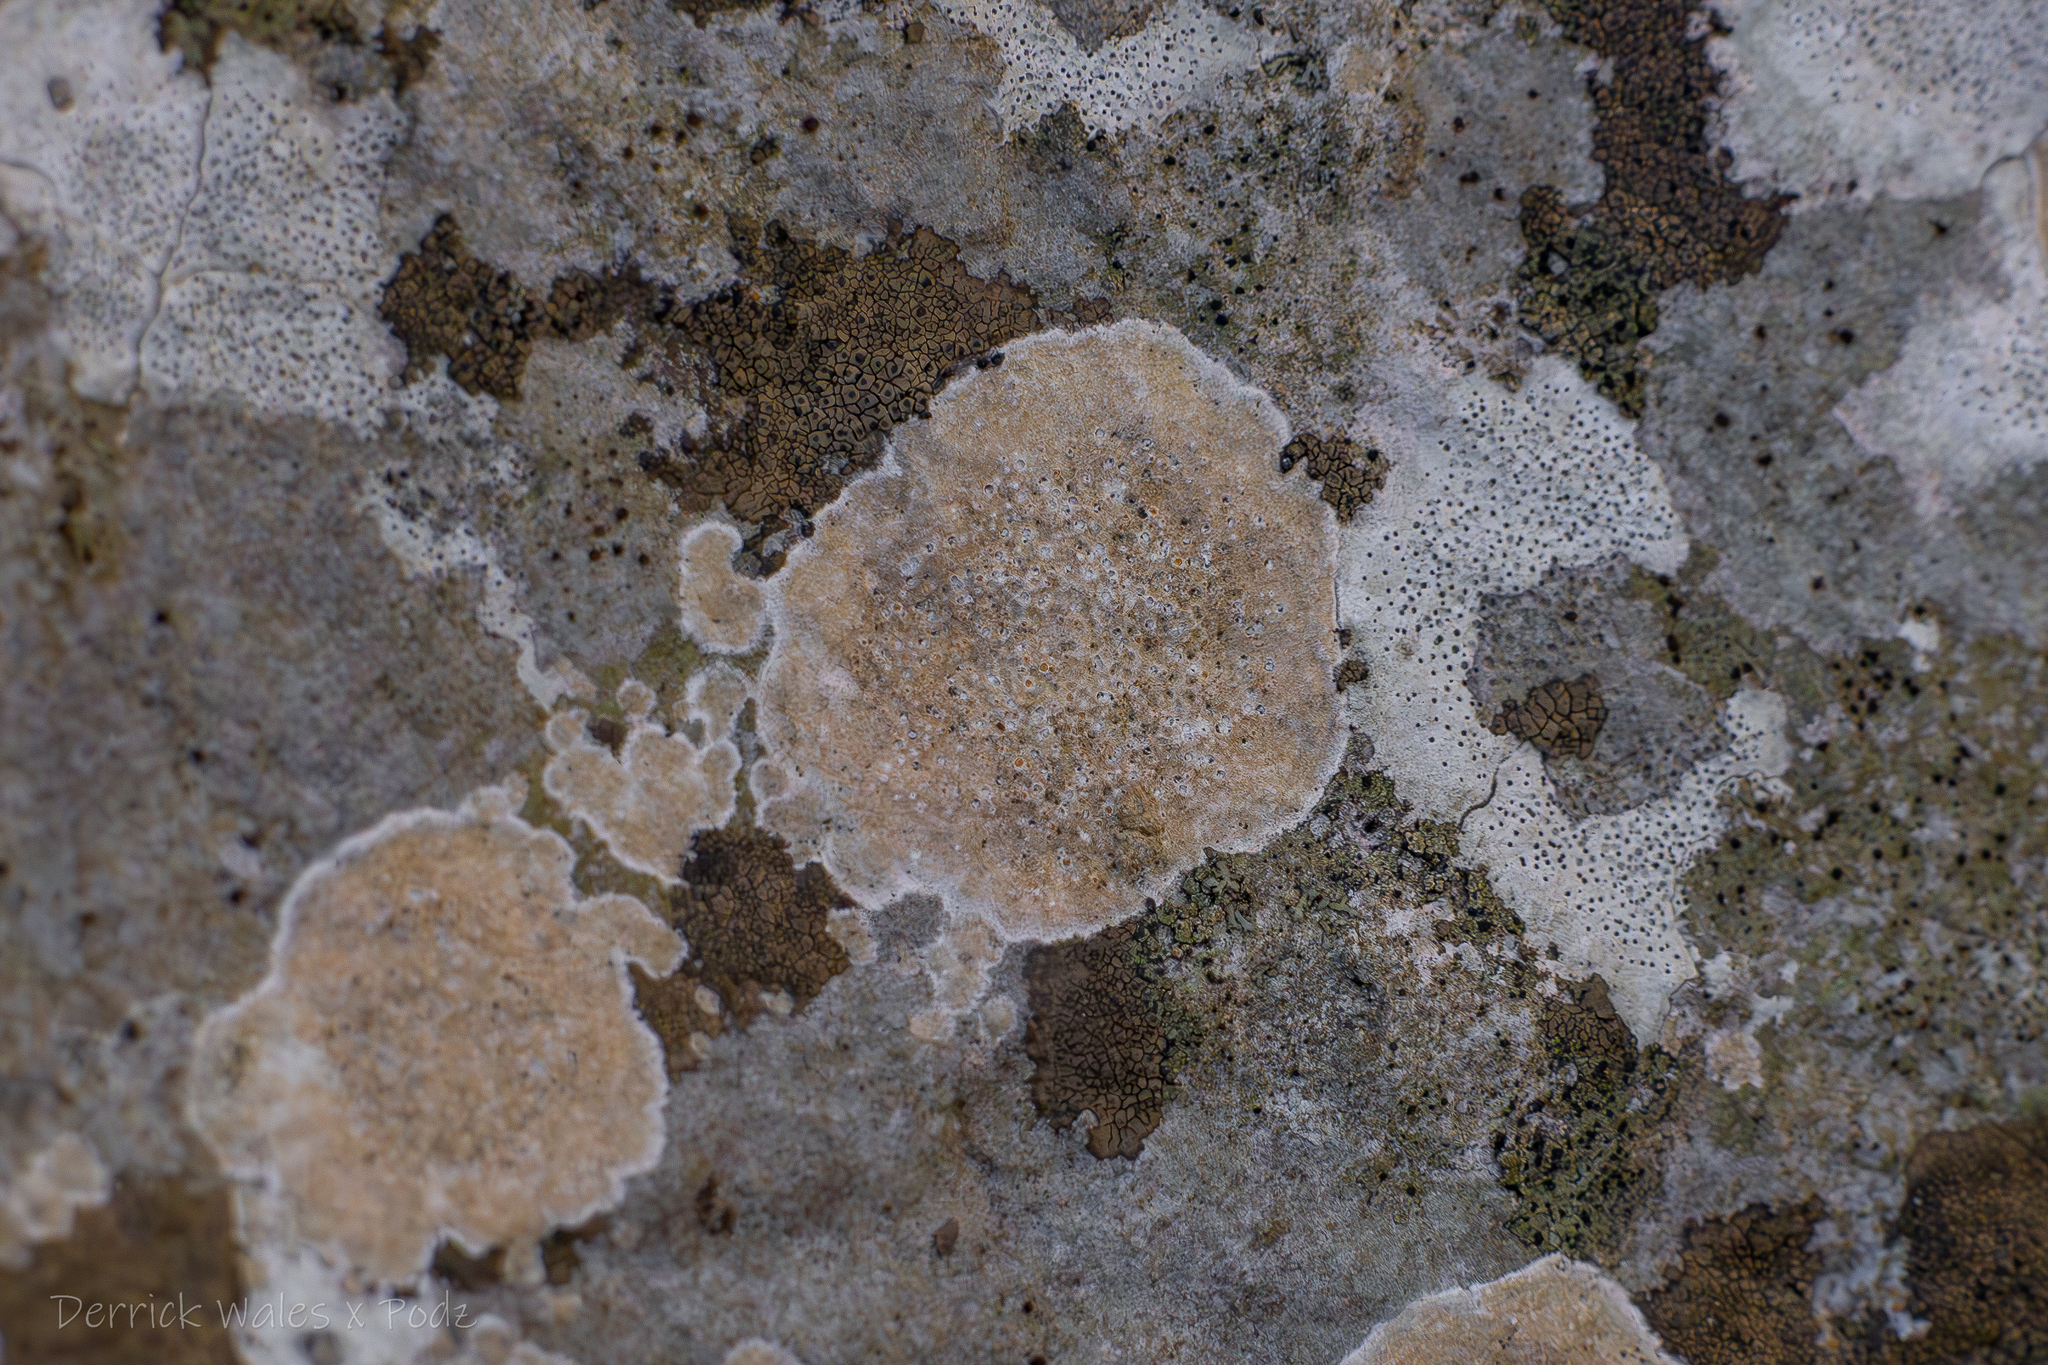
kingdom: Fungi
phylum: Ascomycota
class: Lecanoromycetes
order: Ostropales
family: Stictidaceae
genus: Petractis
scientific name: Petractis farlowii
